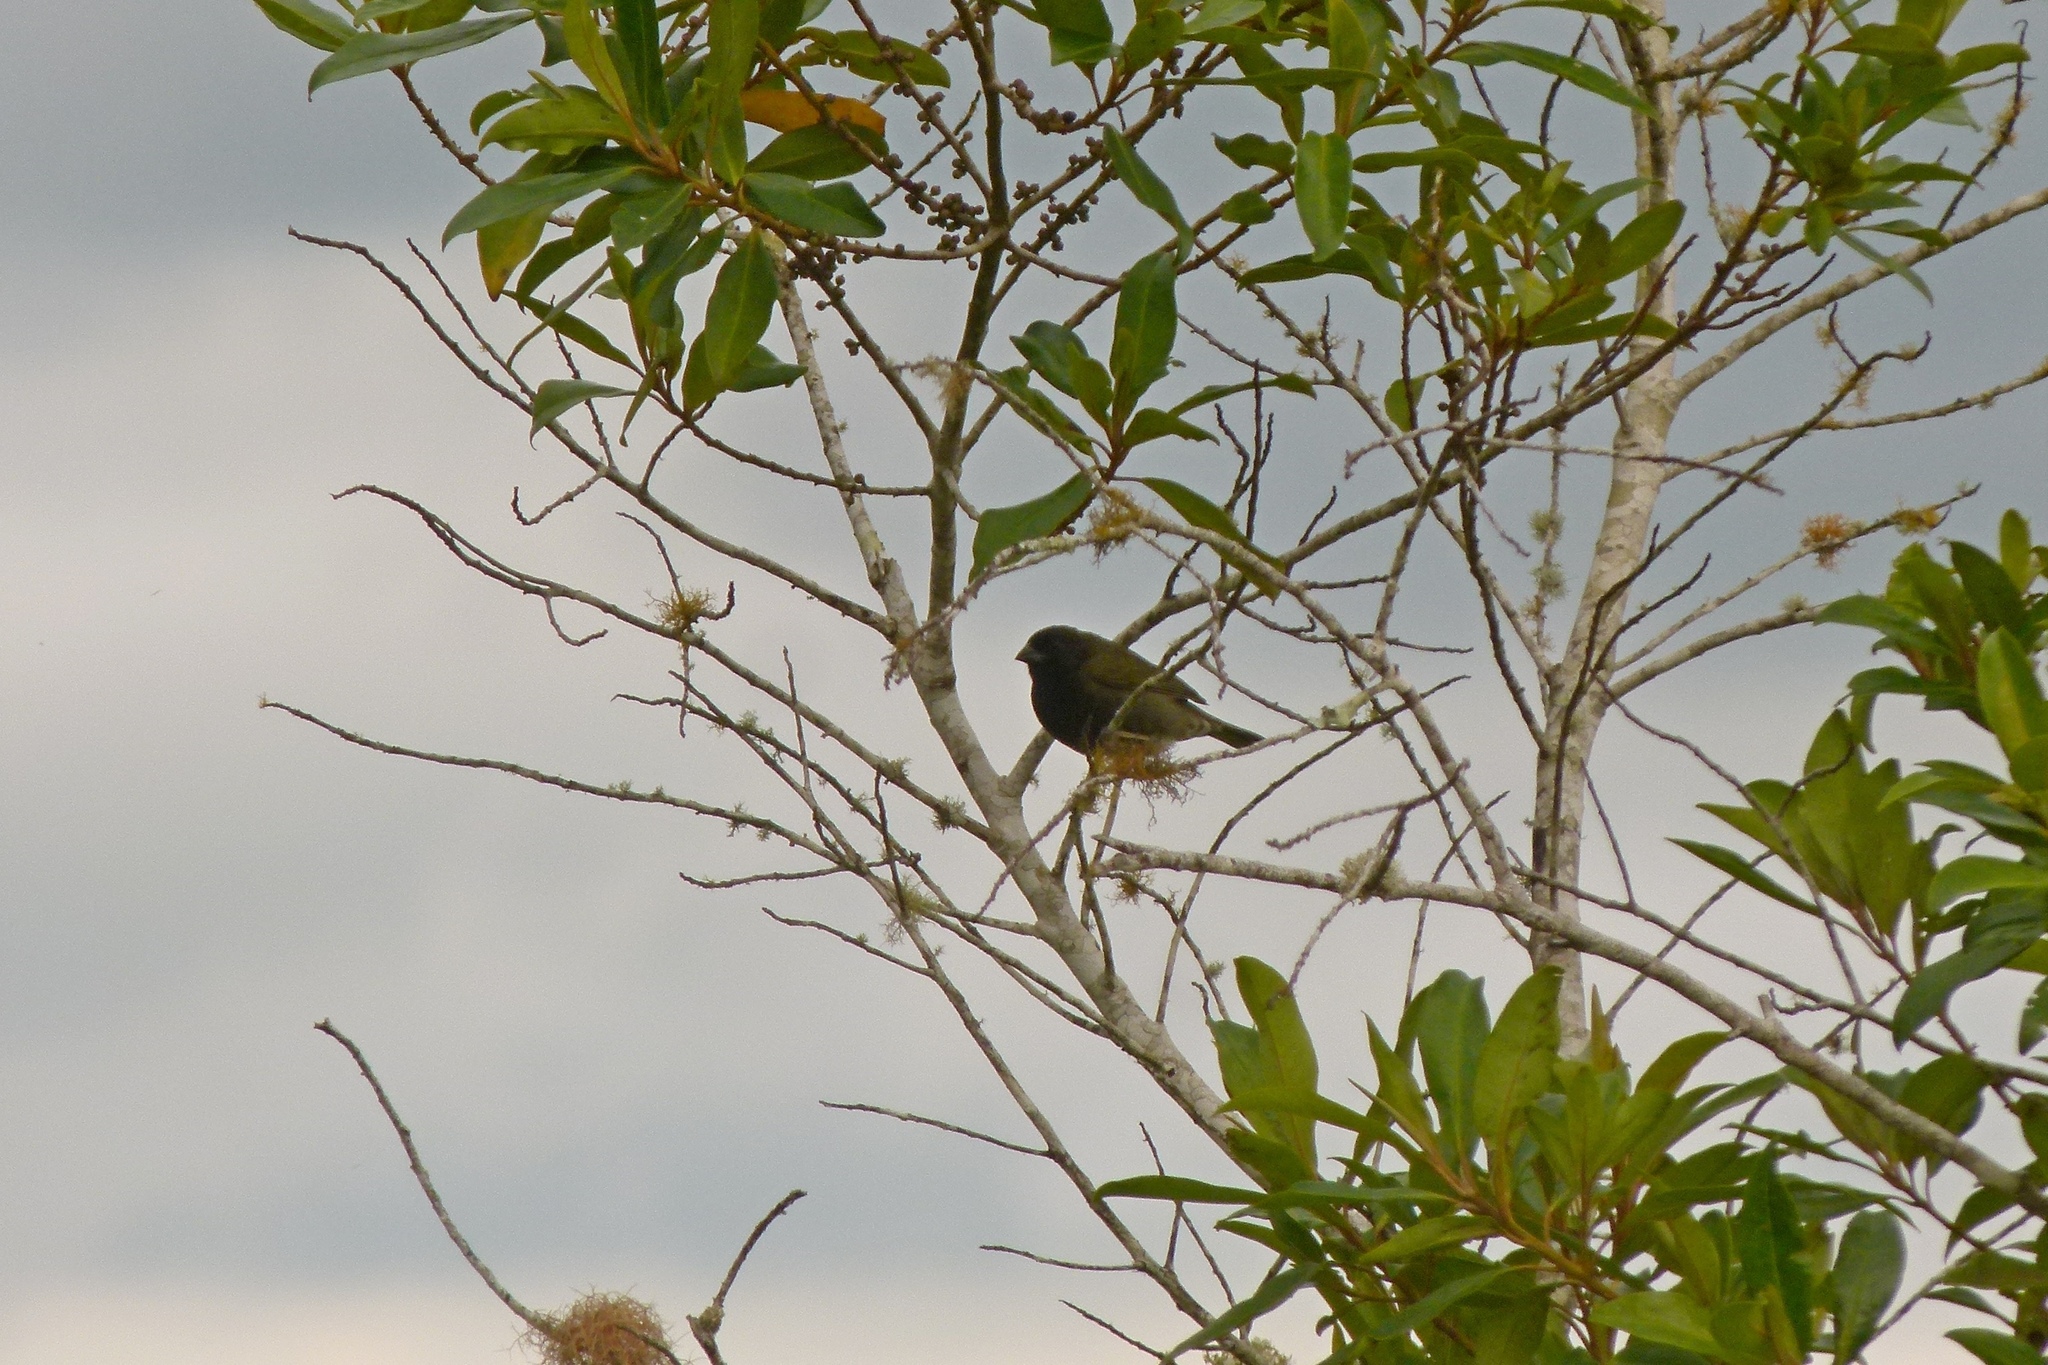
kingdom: Animalia
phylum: Chordata
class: Aves
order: Passeriformes
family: Thraupidae
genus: Melanospiza
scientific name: Melanospiza bicolor
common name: Black-faced grassquit
